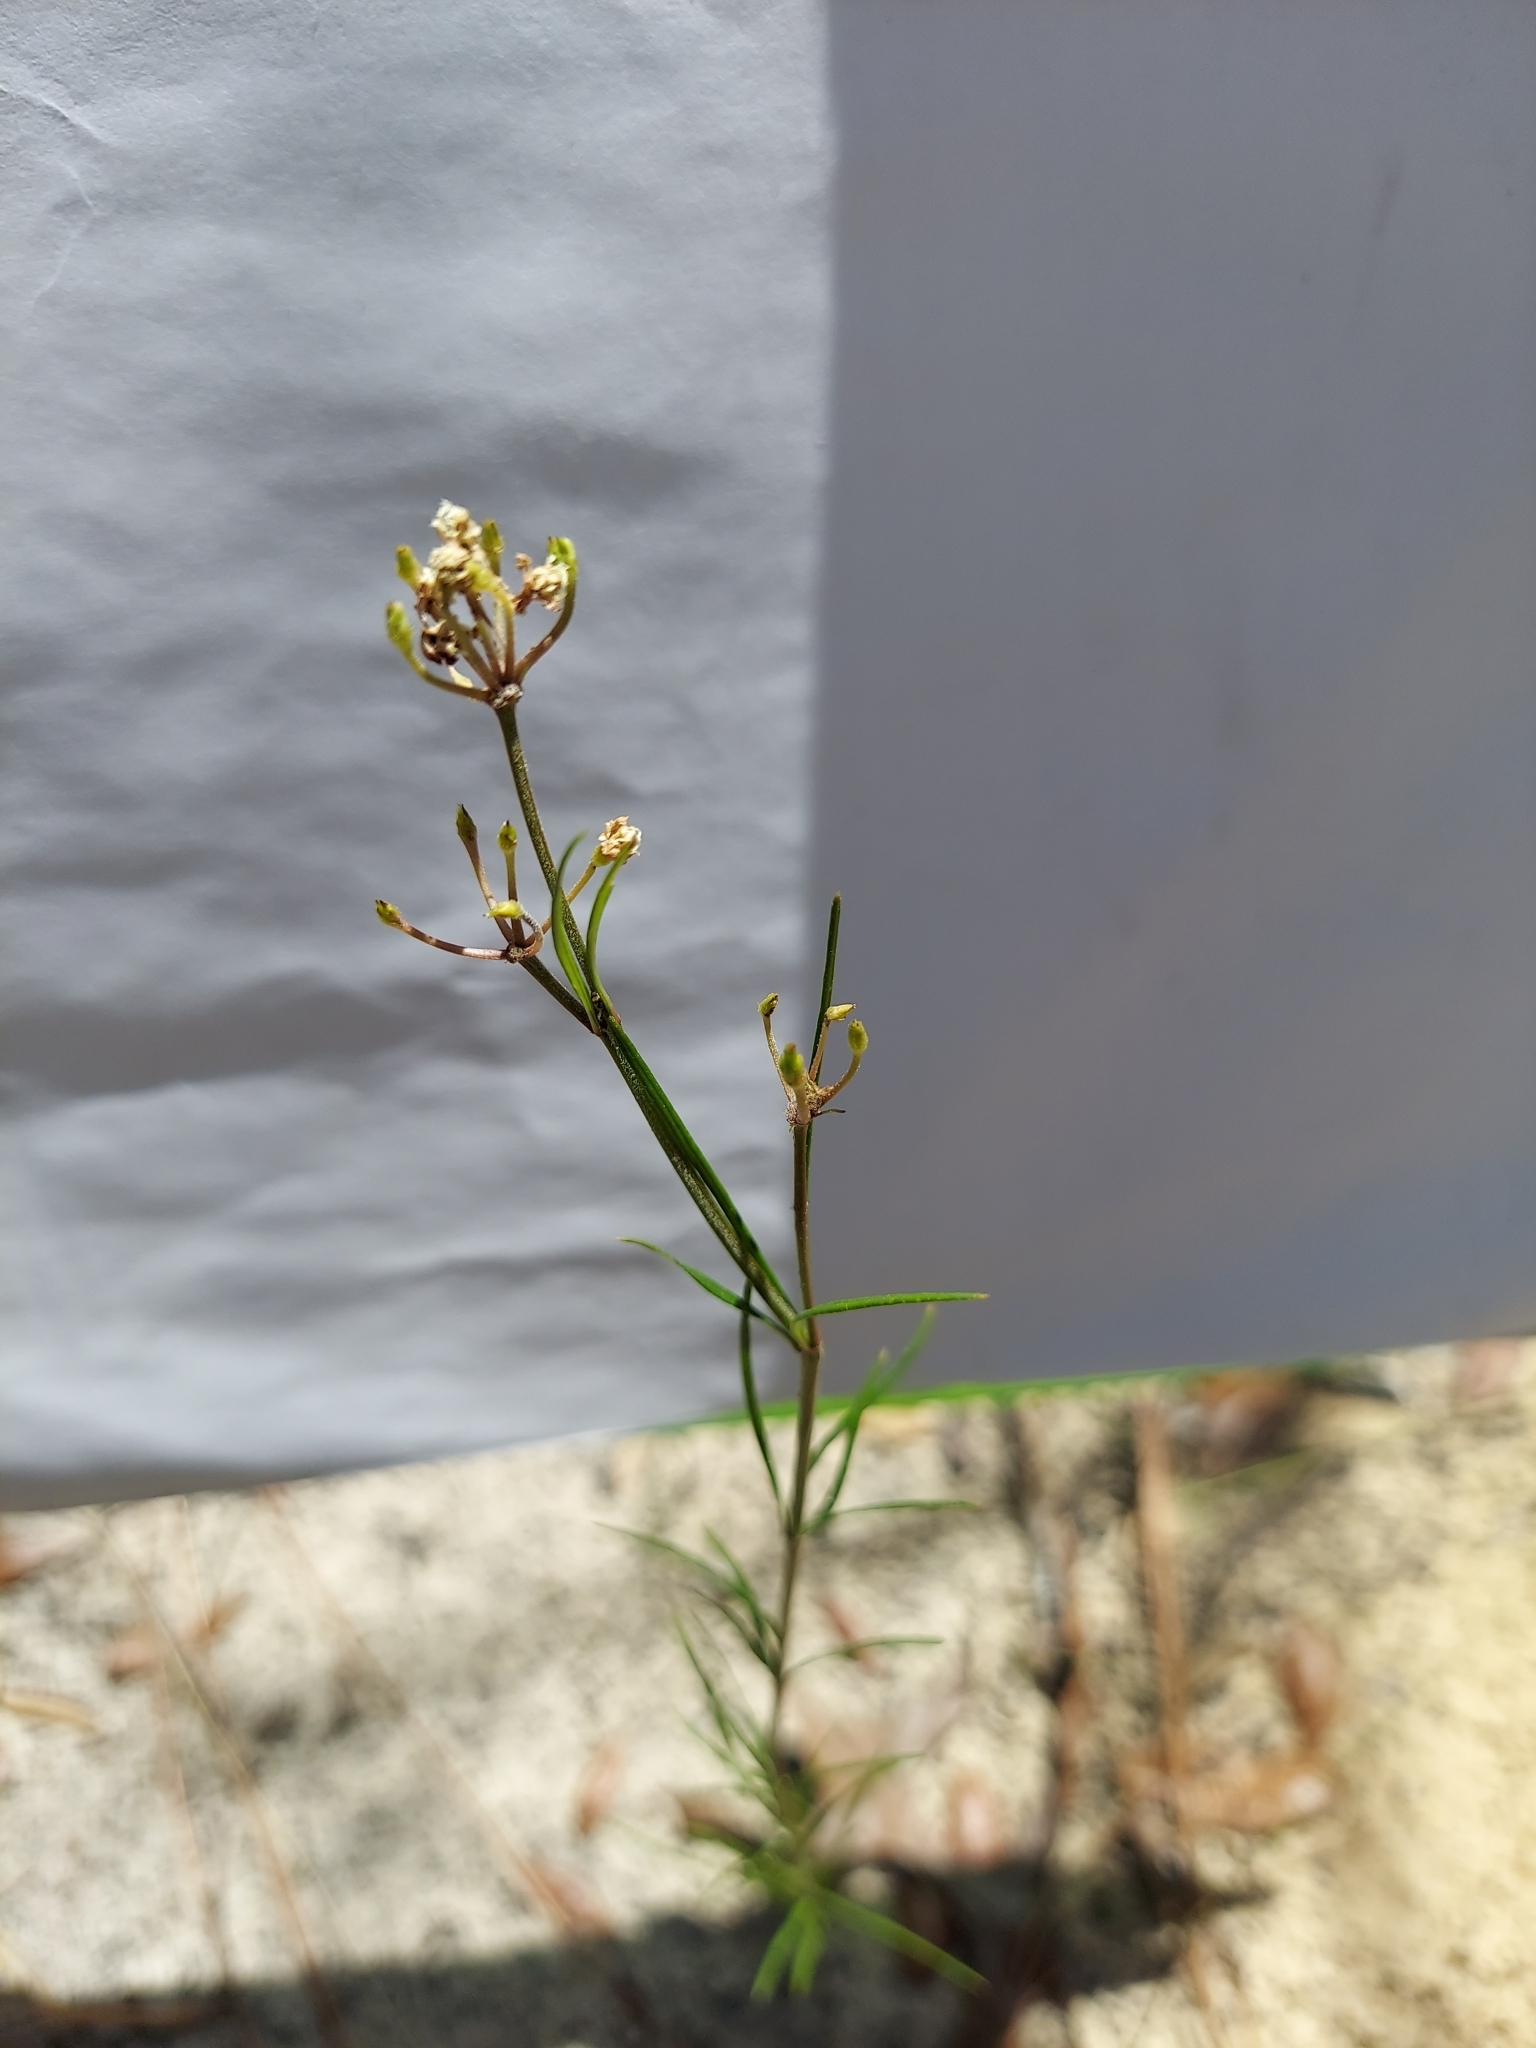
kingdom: Plantae
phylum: Tracheophyta
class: Magnoliopsida
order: Fabales
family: Polygalaceae
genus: Polygala
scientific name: Polygala verticillata
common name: Whorl milkwort
